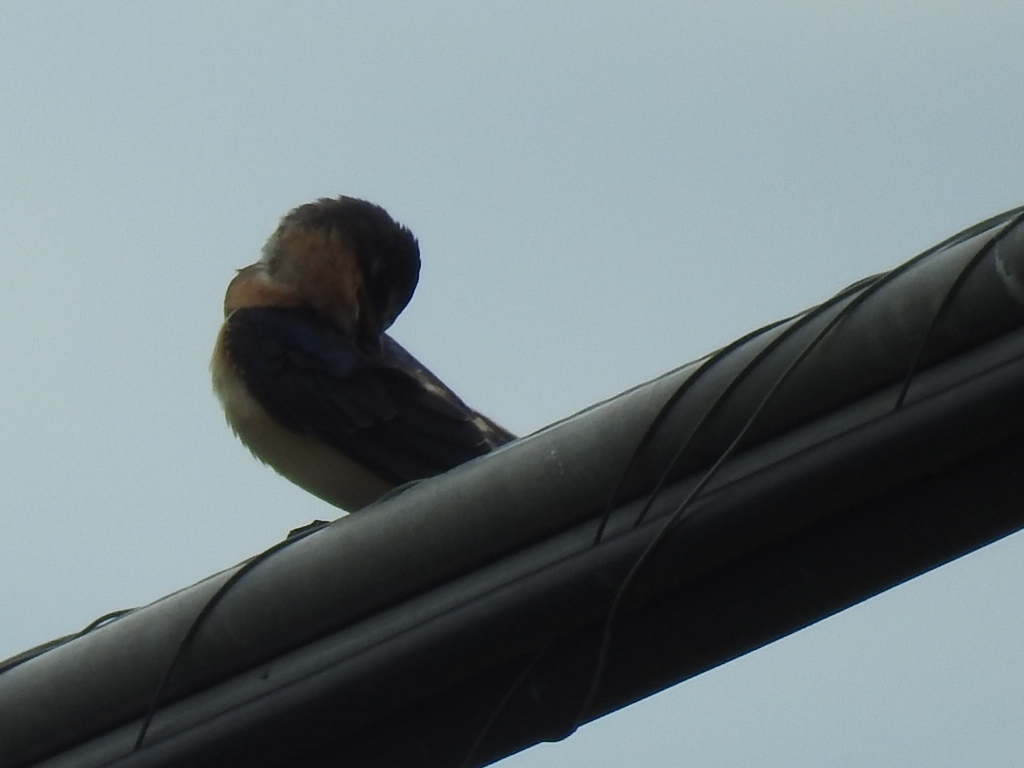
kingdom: Animalia
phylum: Chordata
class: Aves
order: Passeriformes
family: Hirundinidae
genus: Hirundo
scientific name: Hirundo rustica
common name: Barn swallow
